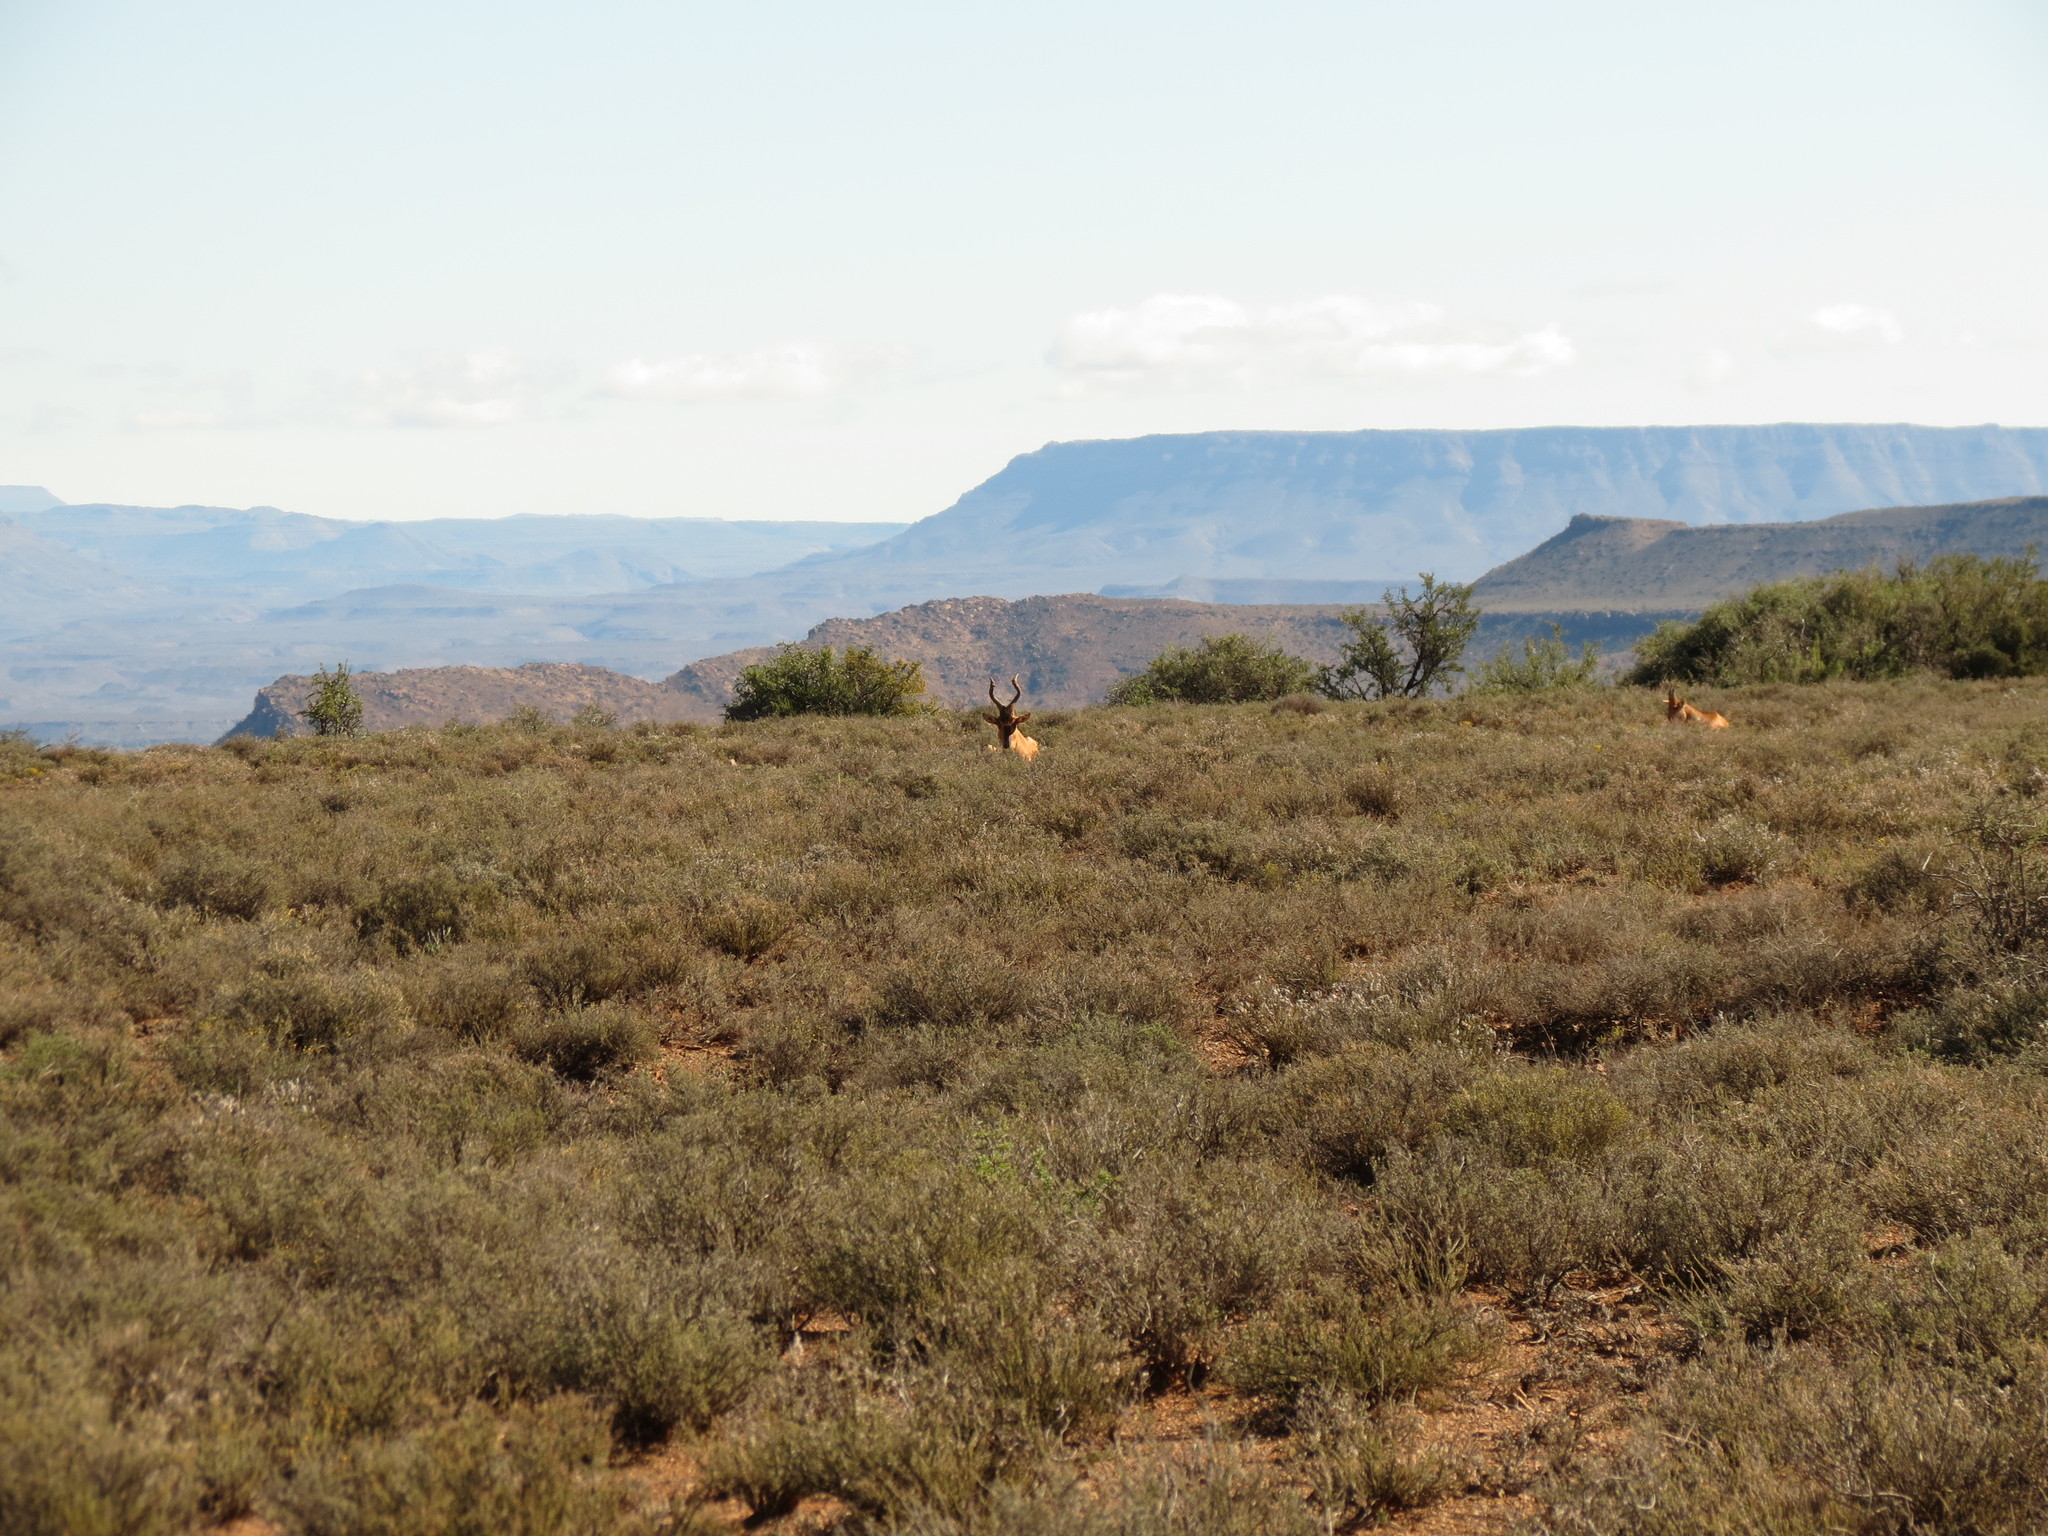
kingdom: Animalia
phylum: Chordata
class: Mammalia
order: Artiodactyla
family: Bovidae
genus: Alcelaphus
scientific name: Alcelaphus caama
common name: Red hartebeest
